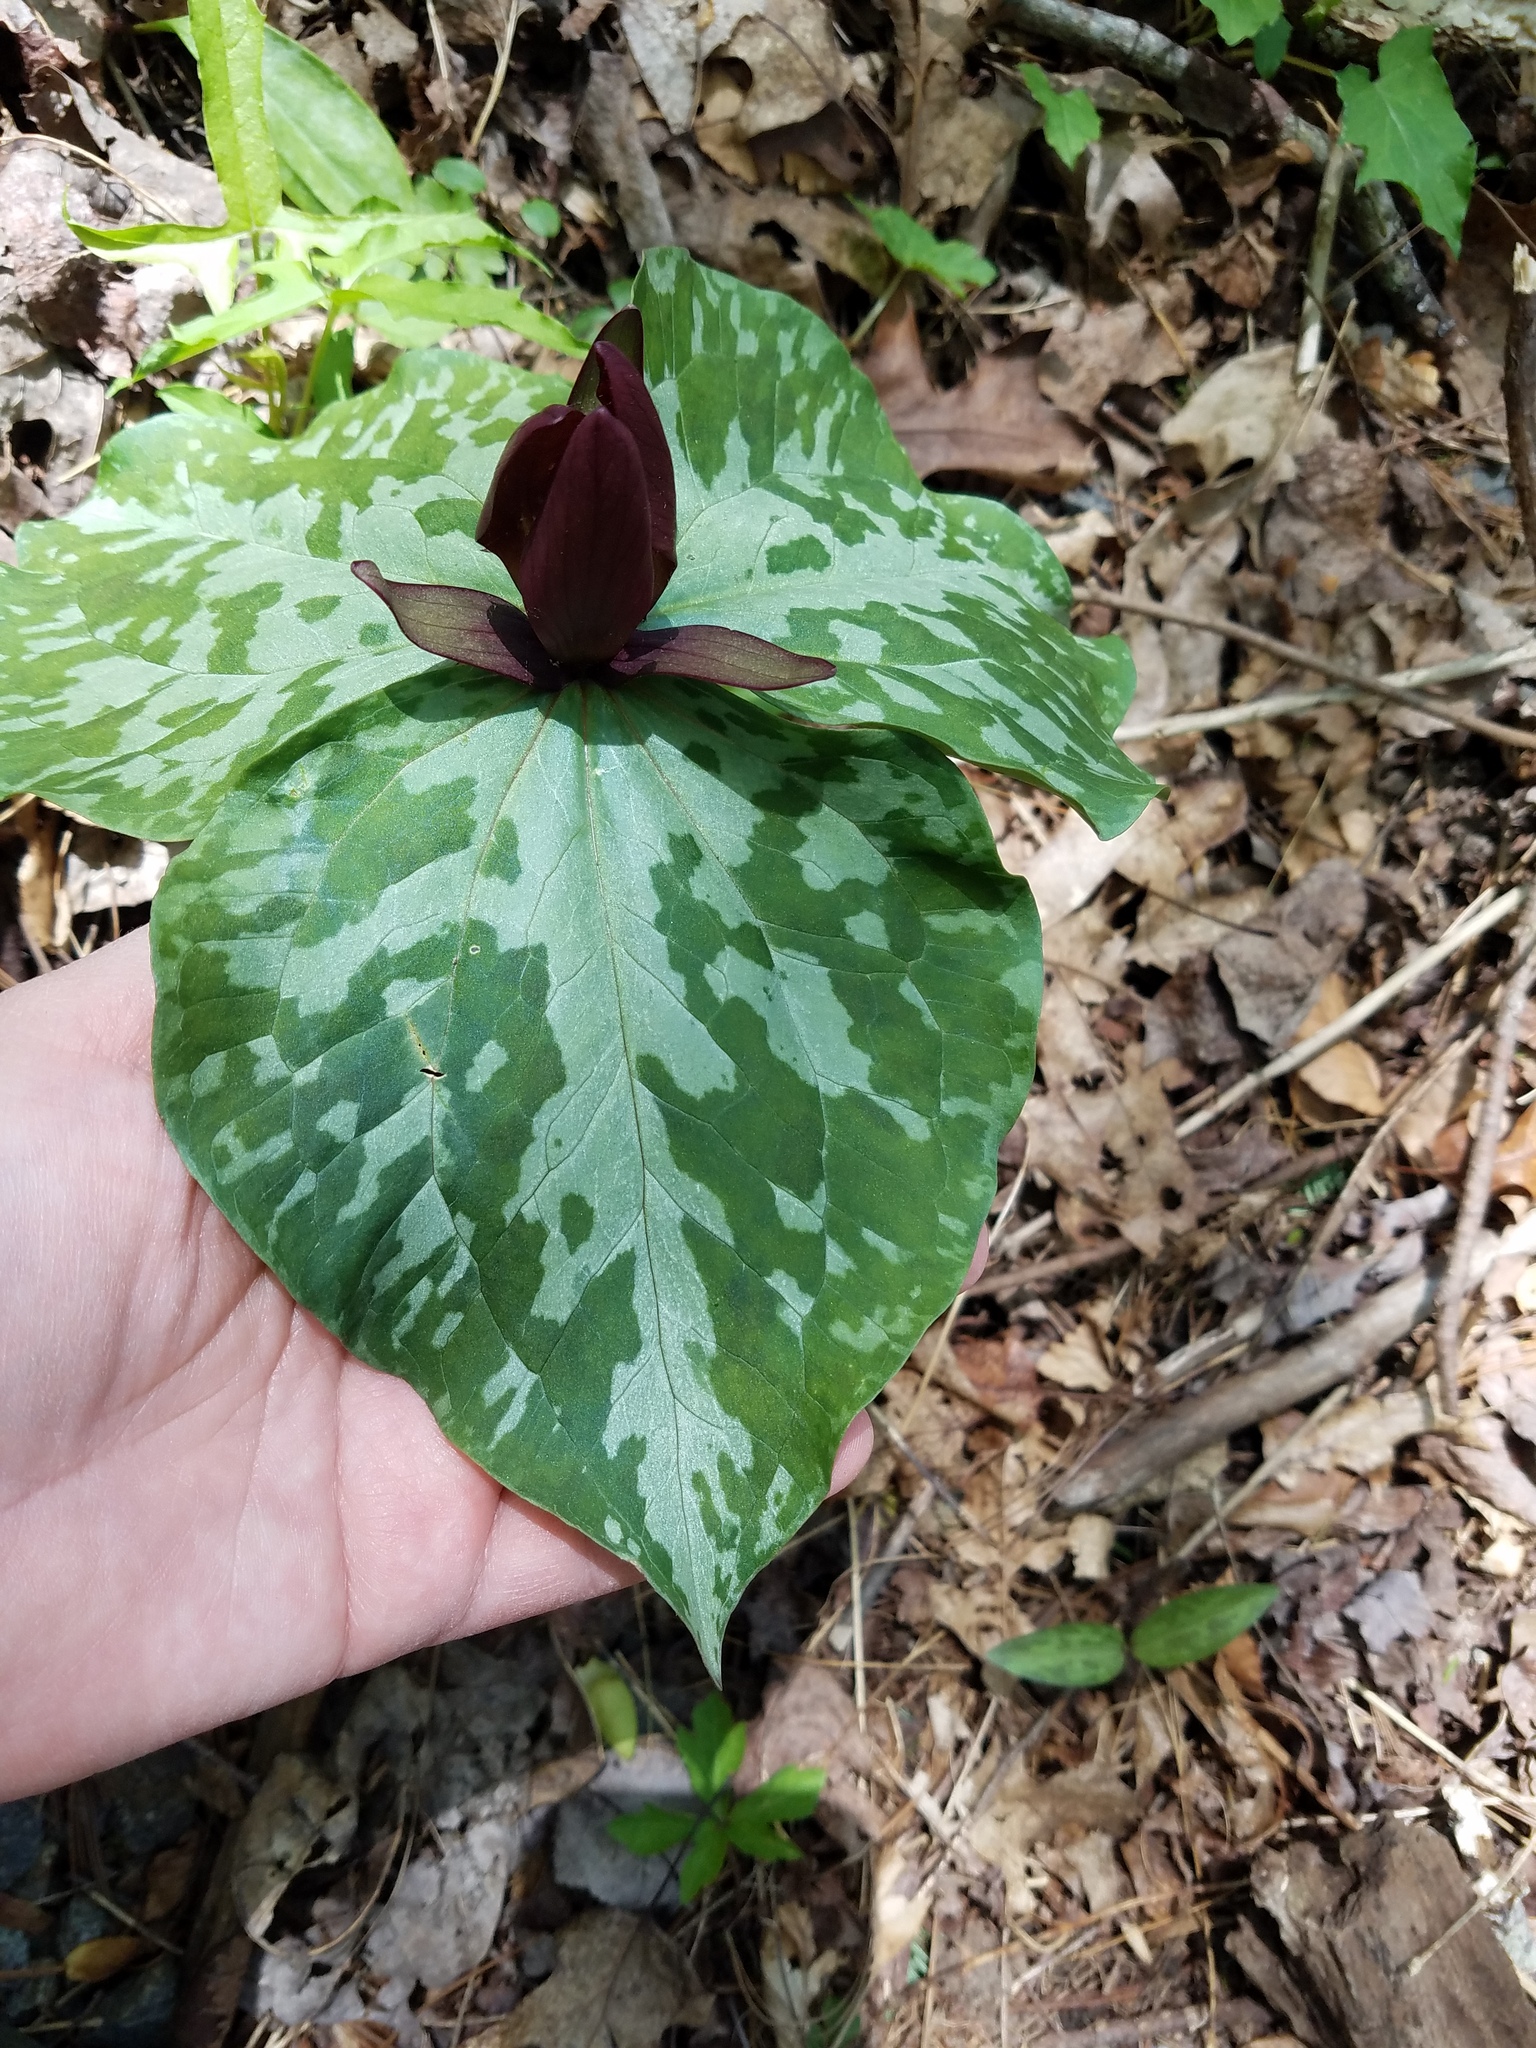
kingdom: Plantae
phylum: Tracheophyta
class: Liliopsida
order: Liliales
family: Melanthiaceae
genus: Trillium
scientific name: Trillium cuneatum
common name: Cuneate trillium
